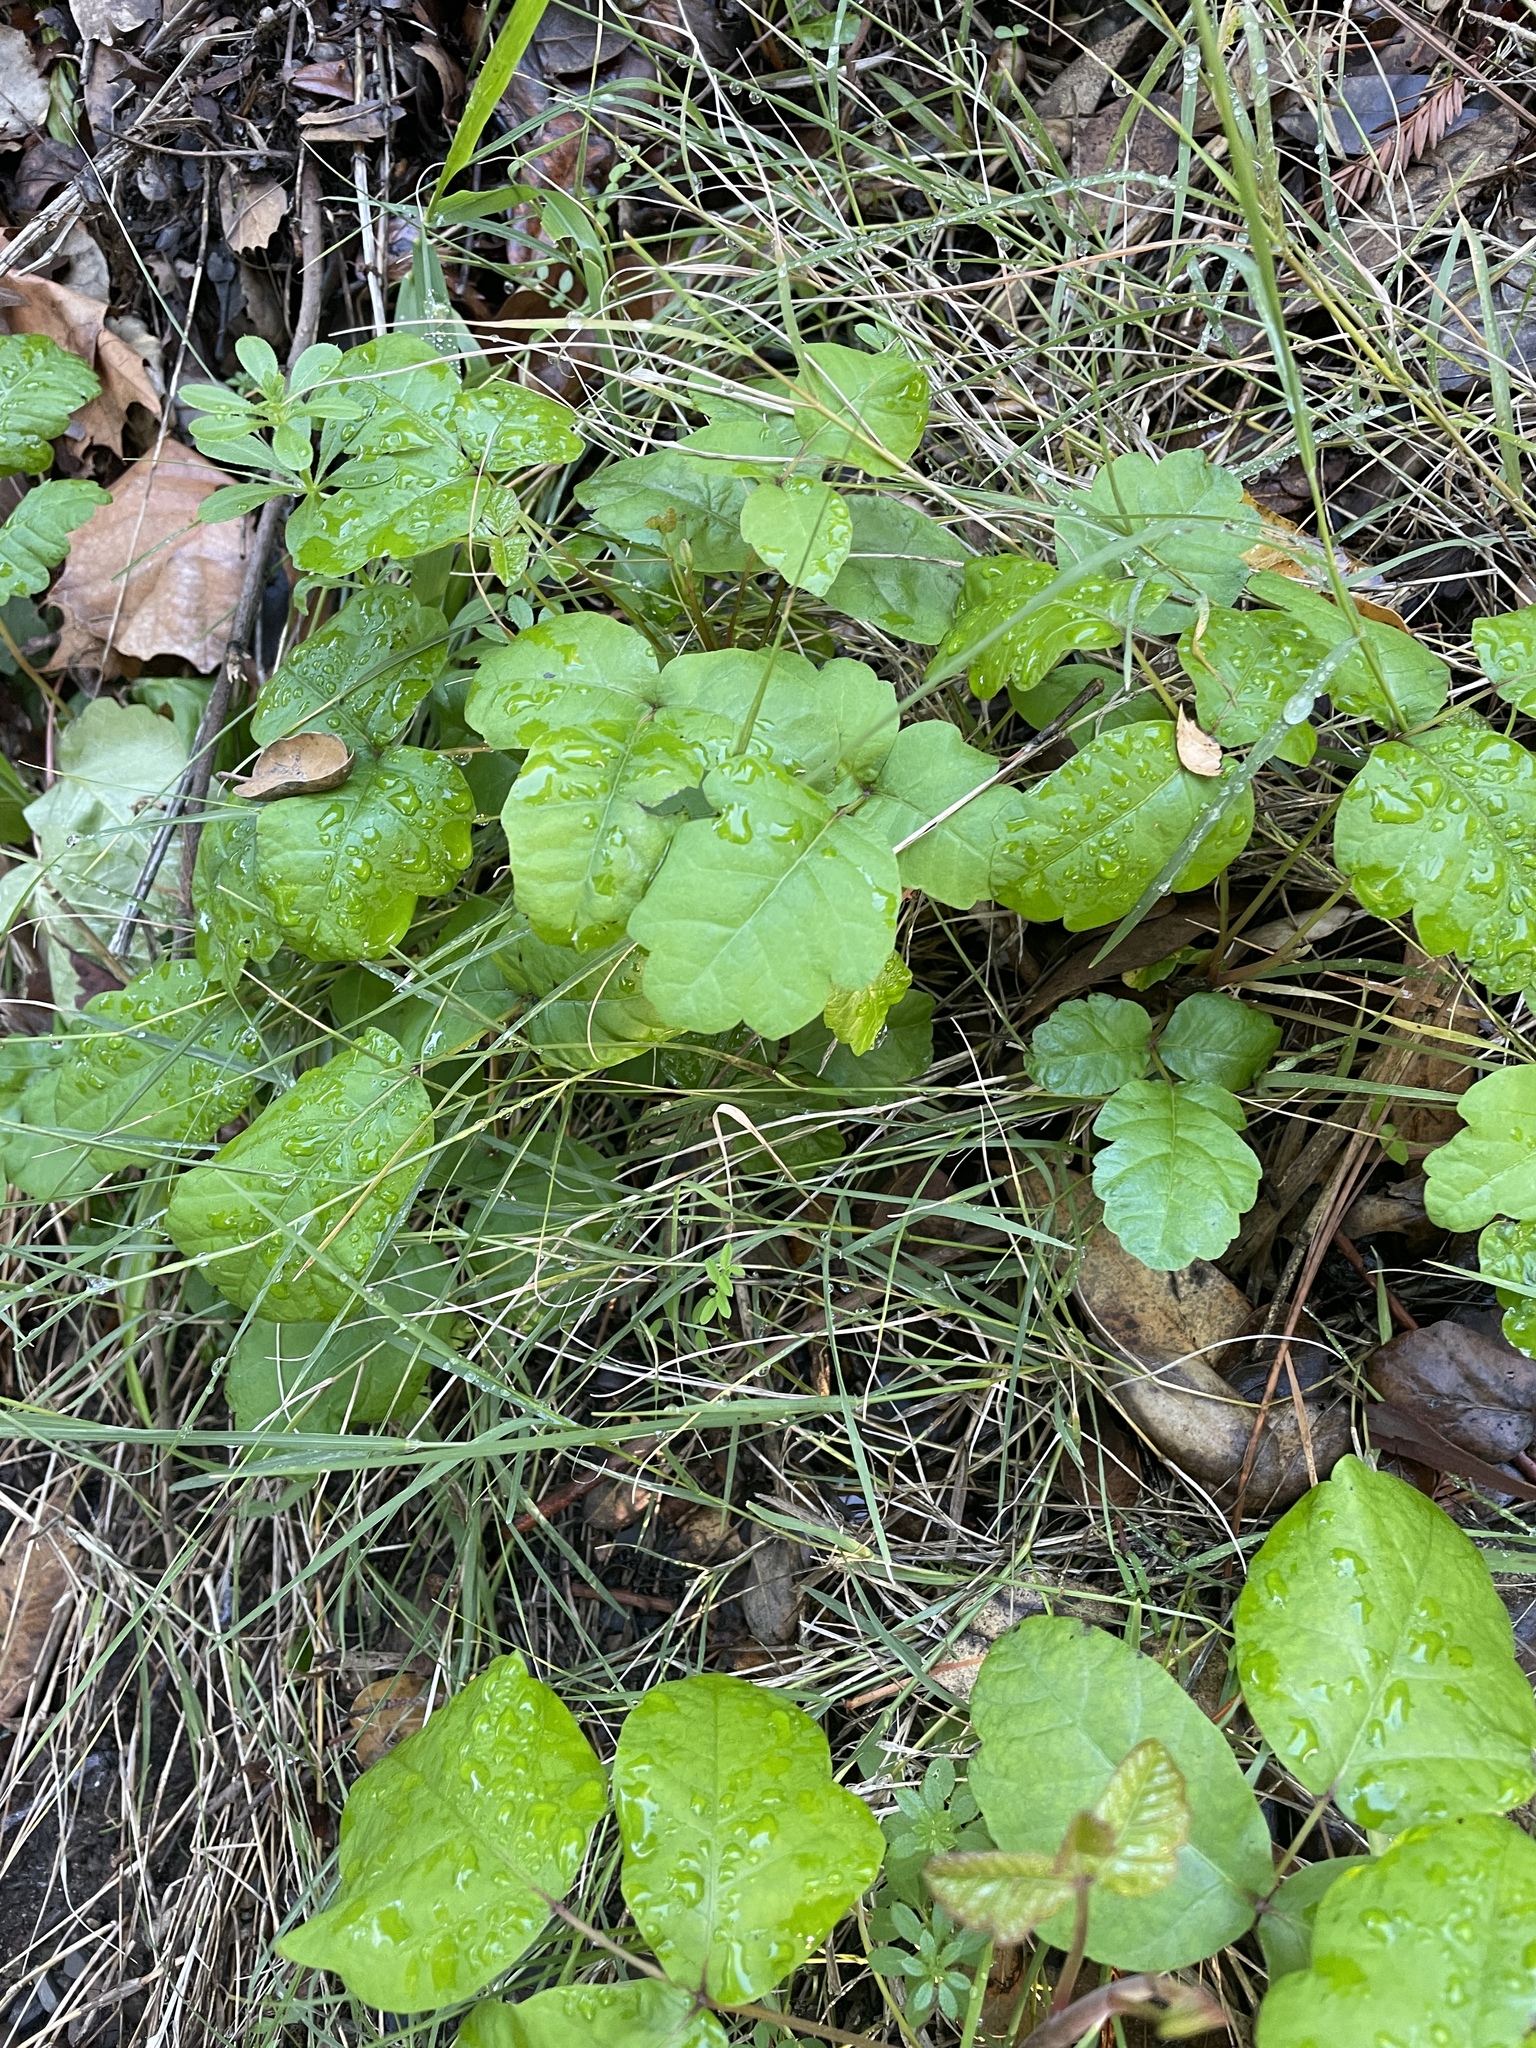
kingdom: Plantae
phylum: Tracheophyta
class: Magnoliopsida
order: Sapindales
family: Anacardiaceae
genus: Toxicodendron
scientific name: Toxicodendron diversilobum
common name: Pacific poison-oak
